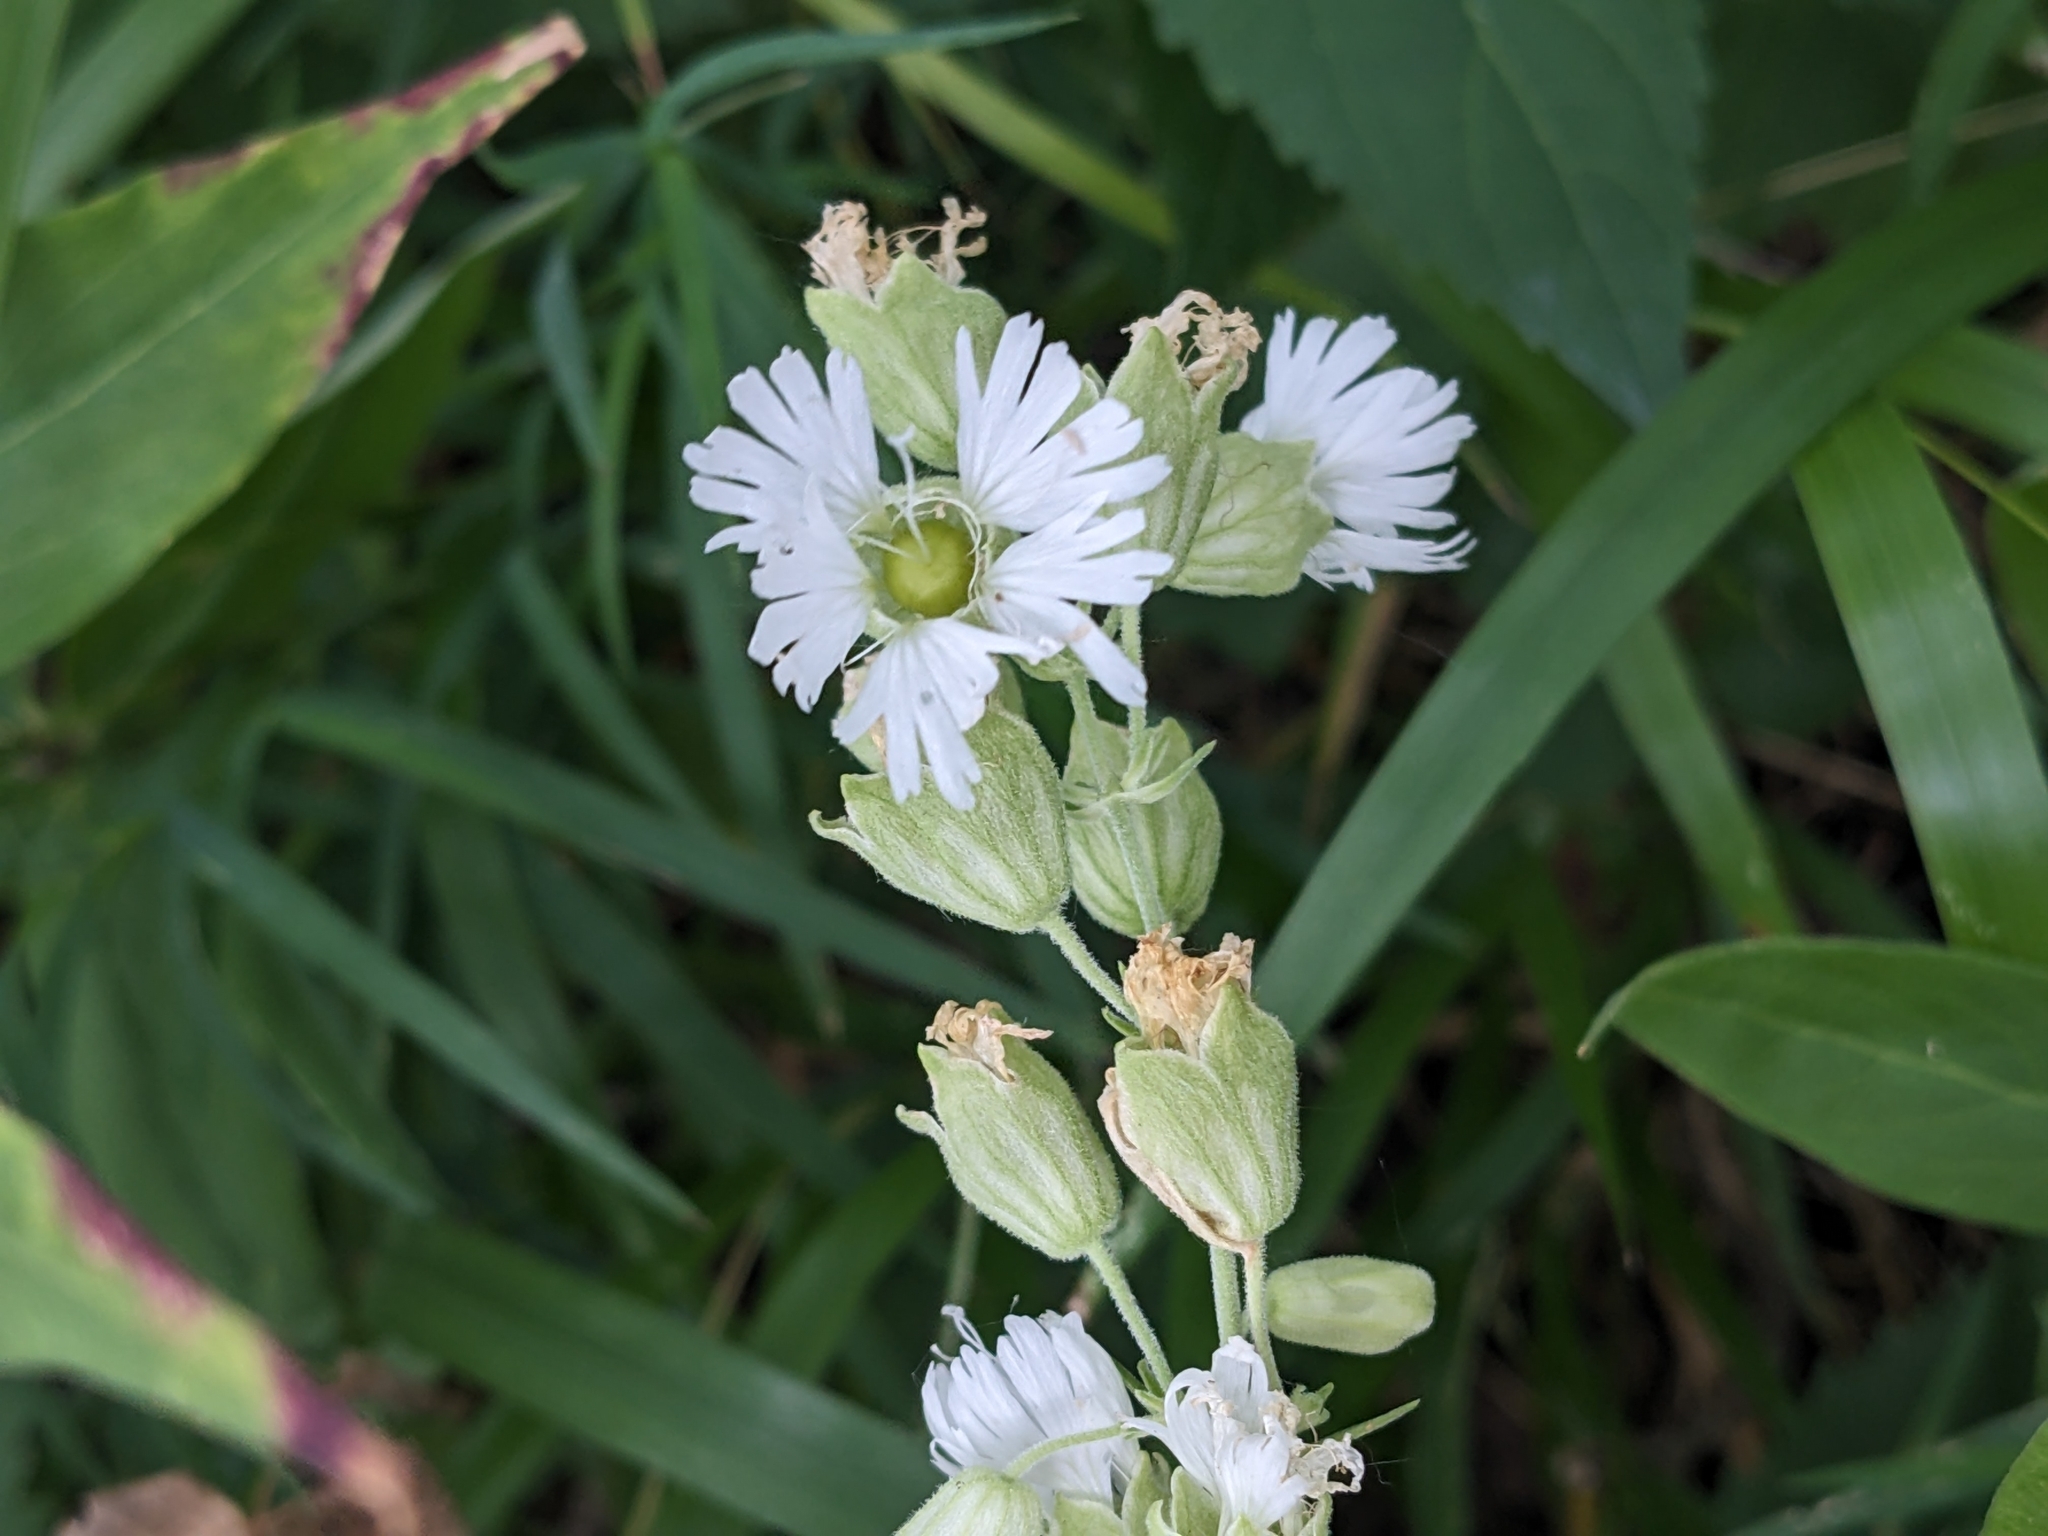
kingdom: Plantae
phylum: Tracheophyta
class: Magnoliopsida
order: Caryophyllales
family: Caryophyllaceae
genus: Silene
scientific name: Silene stellata
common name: Starry campion
